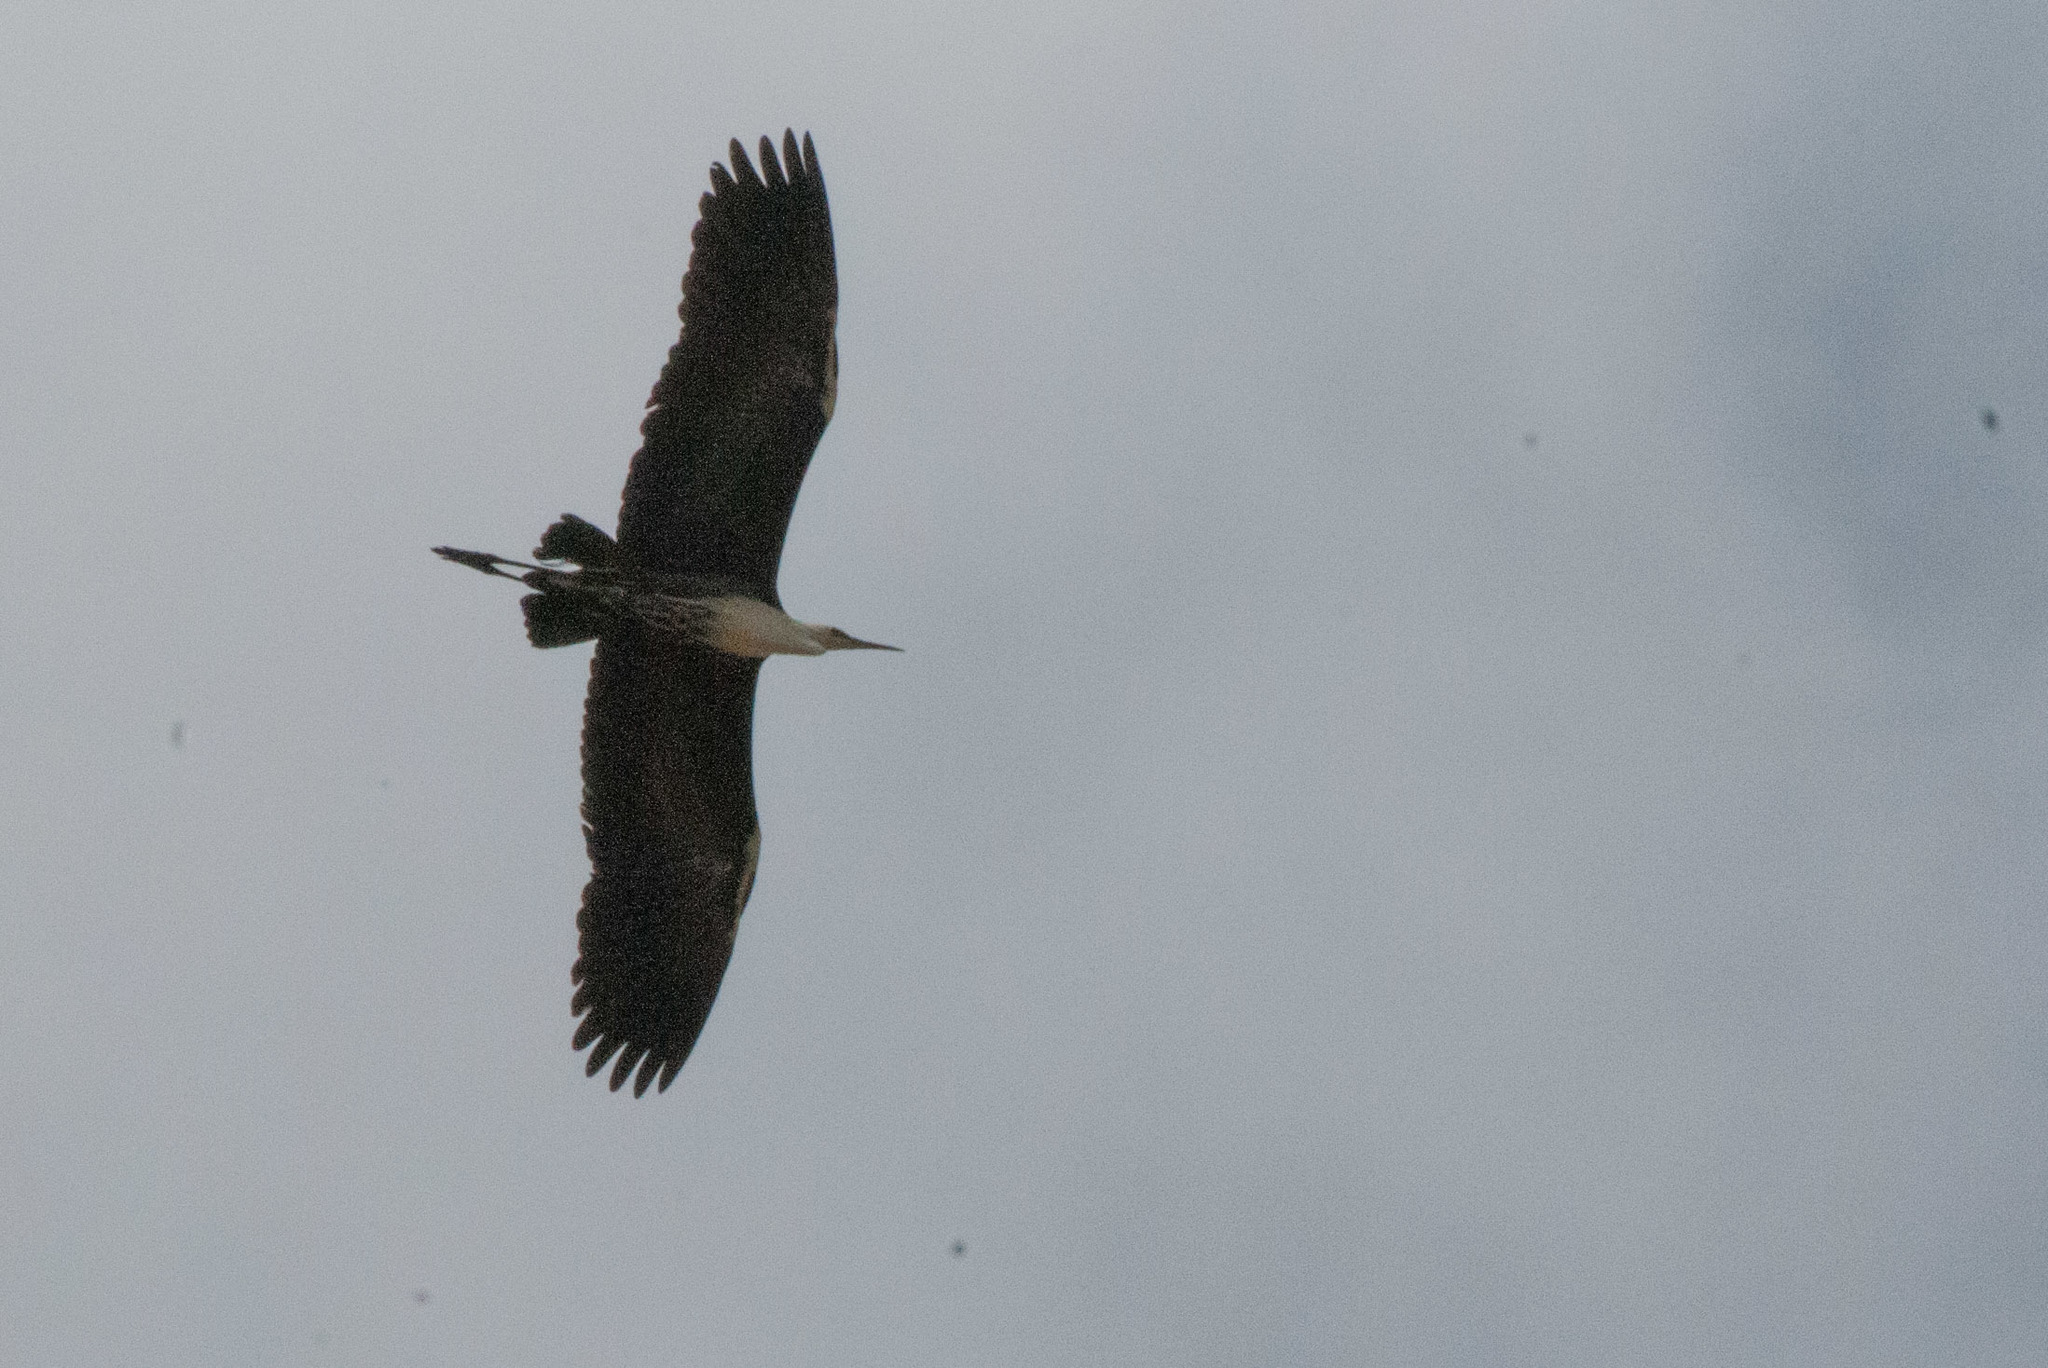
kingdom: Animalia
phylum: Chordata
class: Aves
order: Pelecaniformes
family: Ardeidae
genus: Ardea
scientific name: Ardea pacifica
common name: White-necked heron
